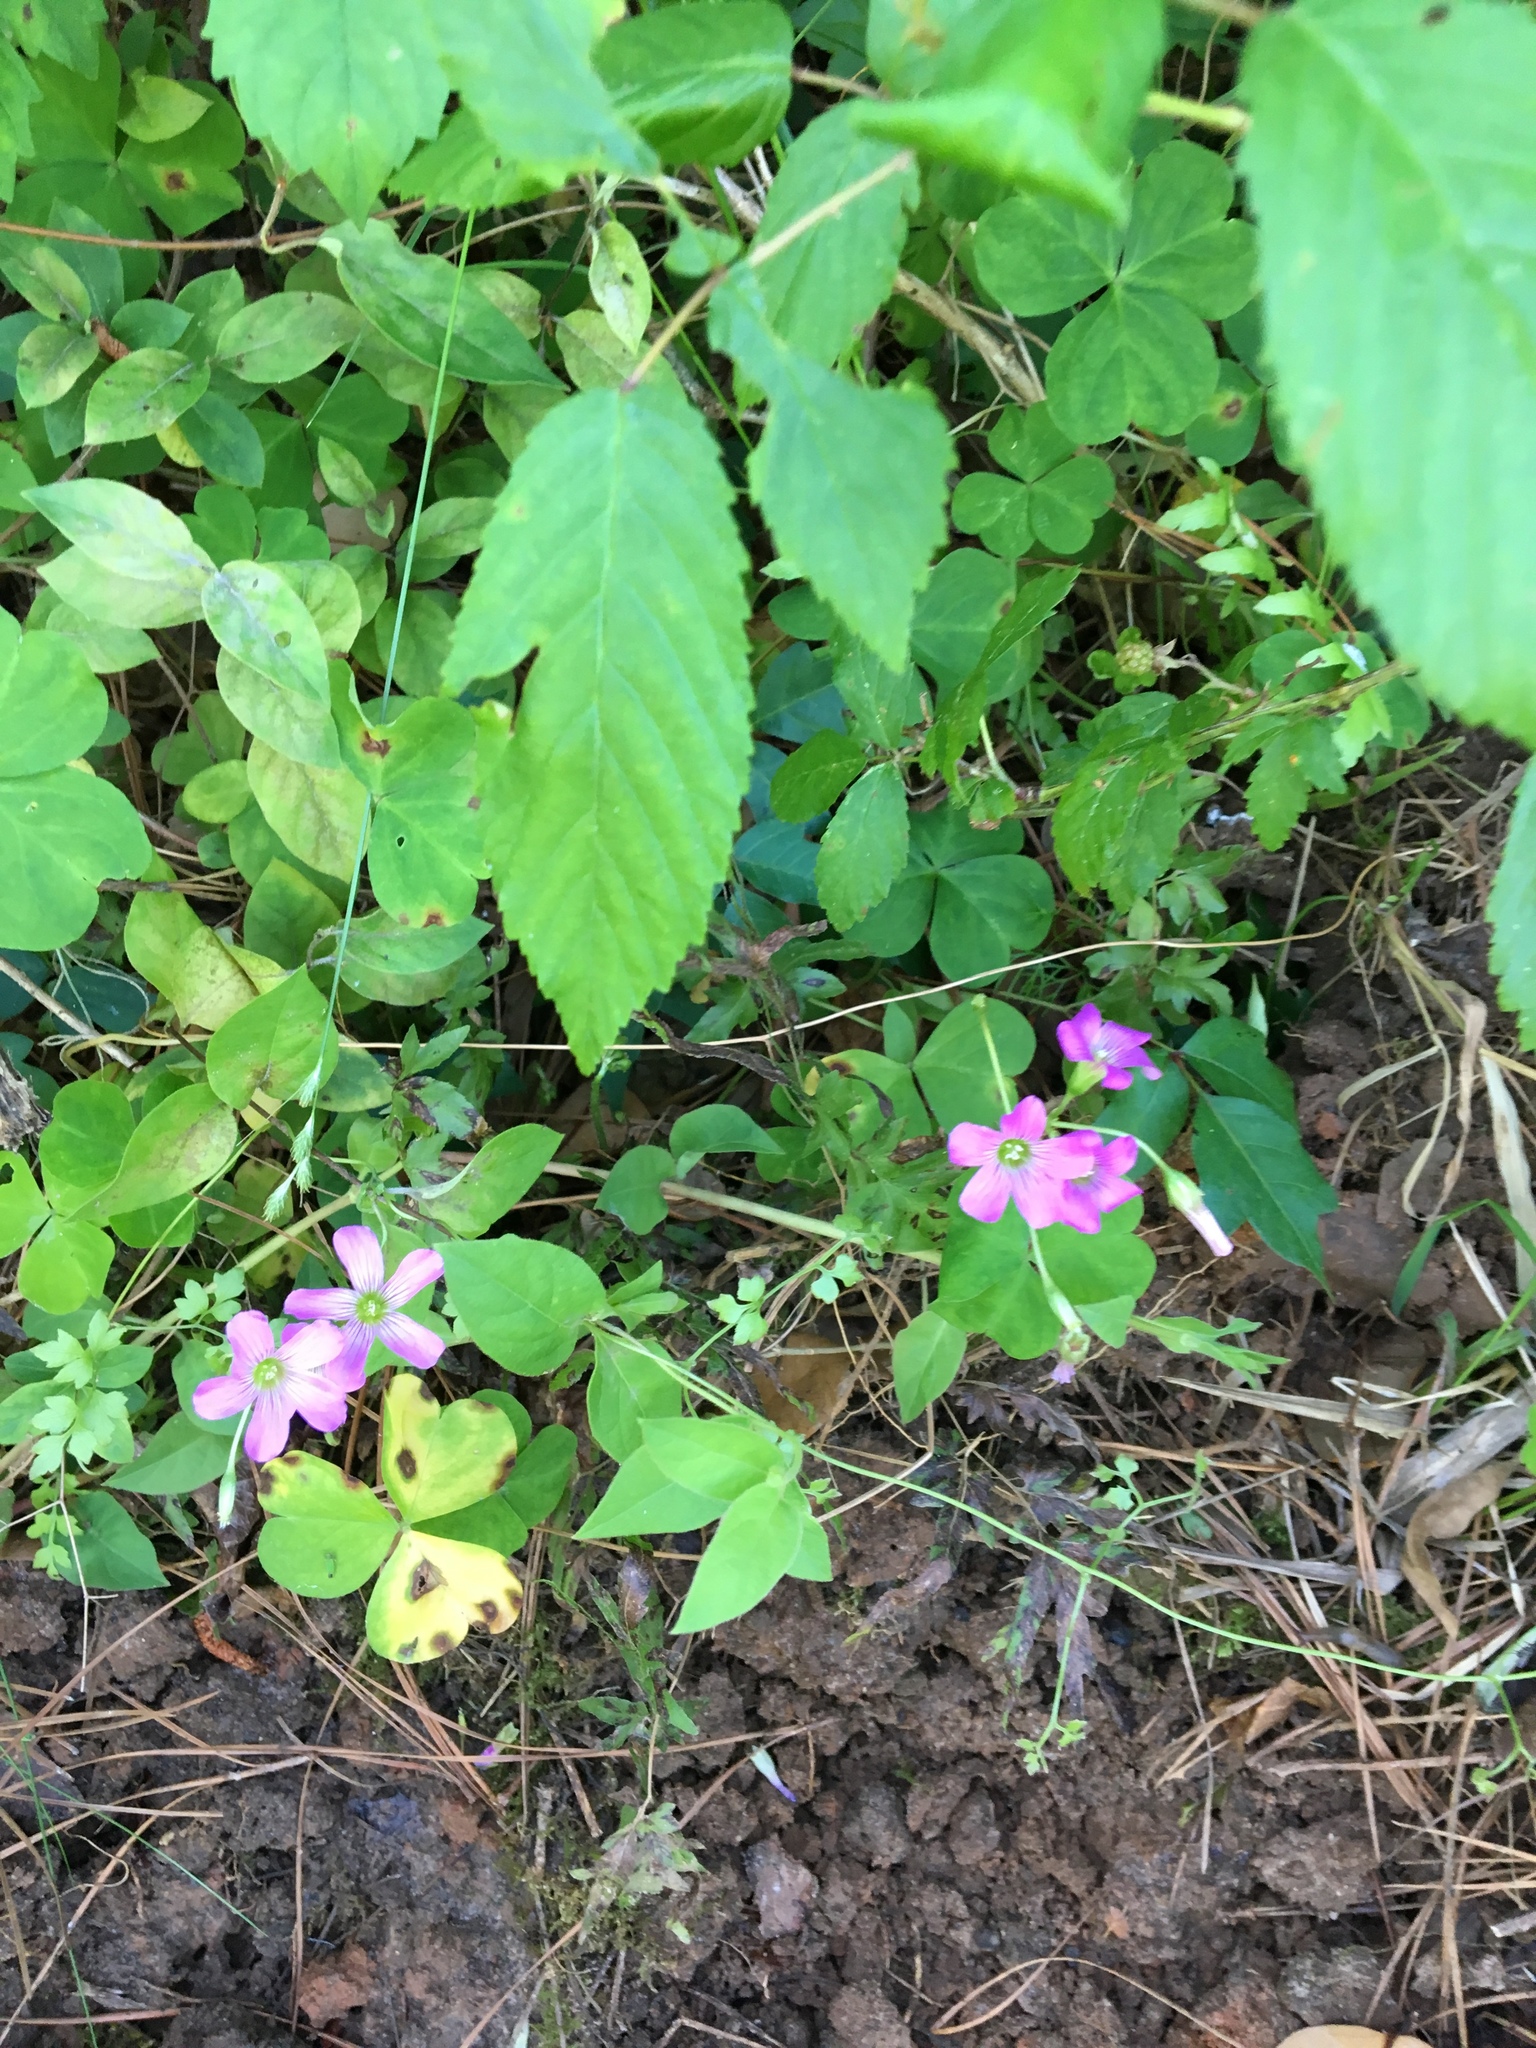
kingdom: Plantae
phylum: Tracheophyta
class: Magnoliopsida
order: Oxalidales
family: Oxalidaceae
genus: Oxalis
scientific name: Oxalis debilis
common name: Large-flowered pink-sorrel
